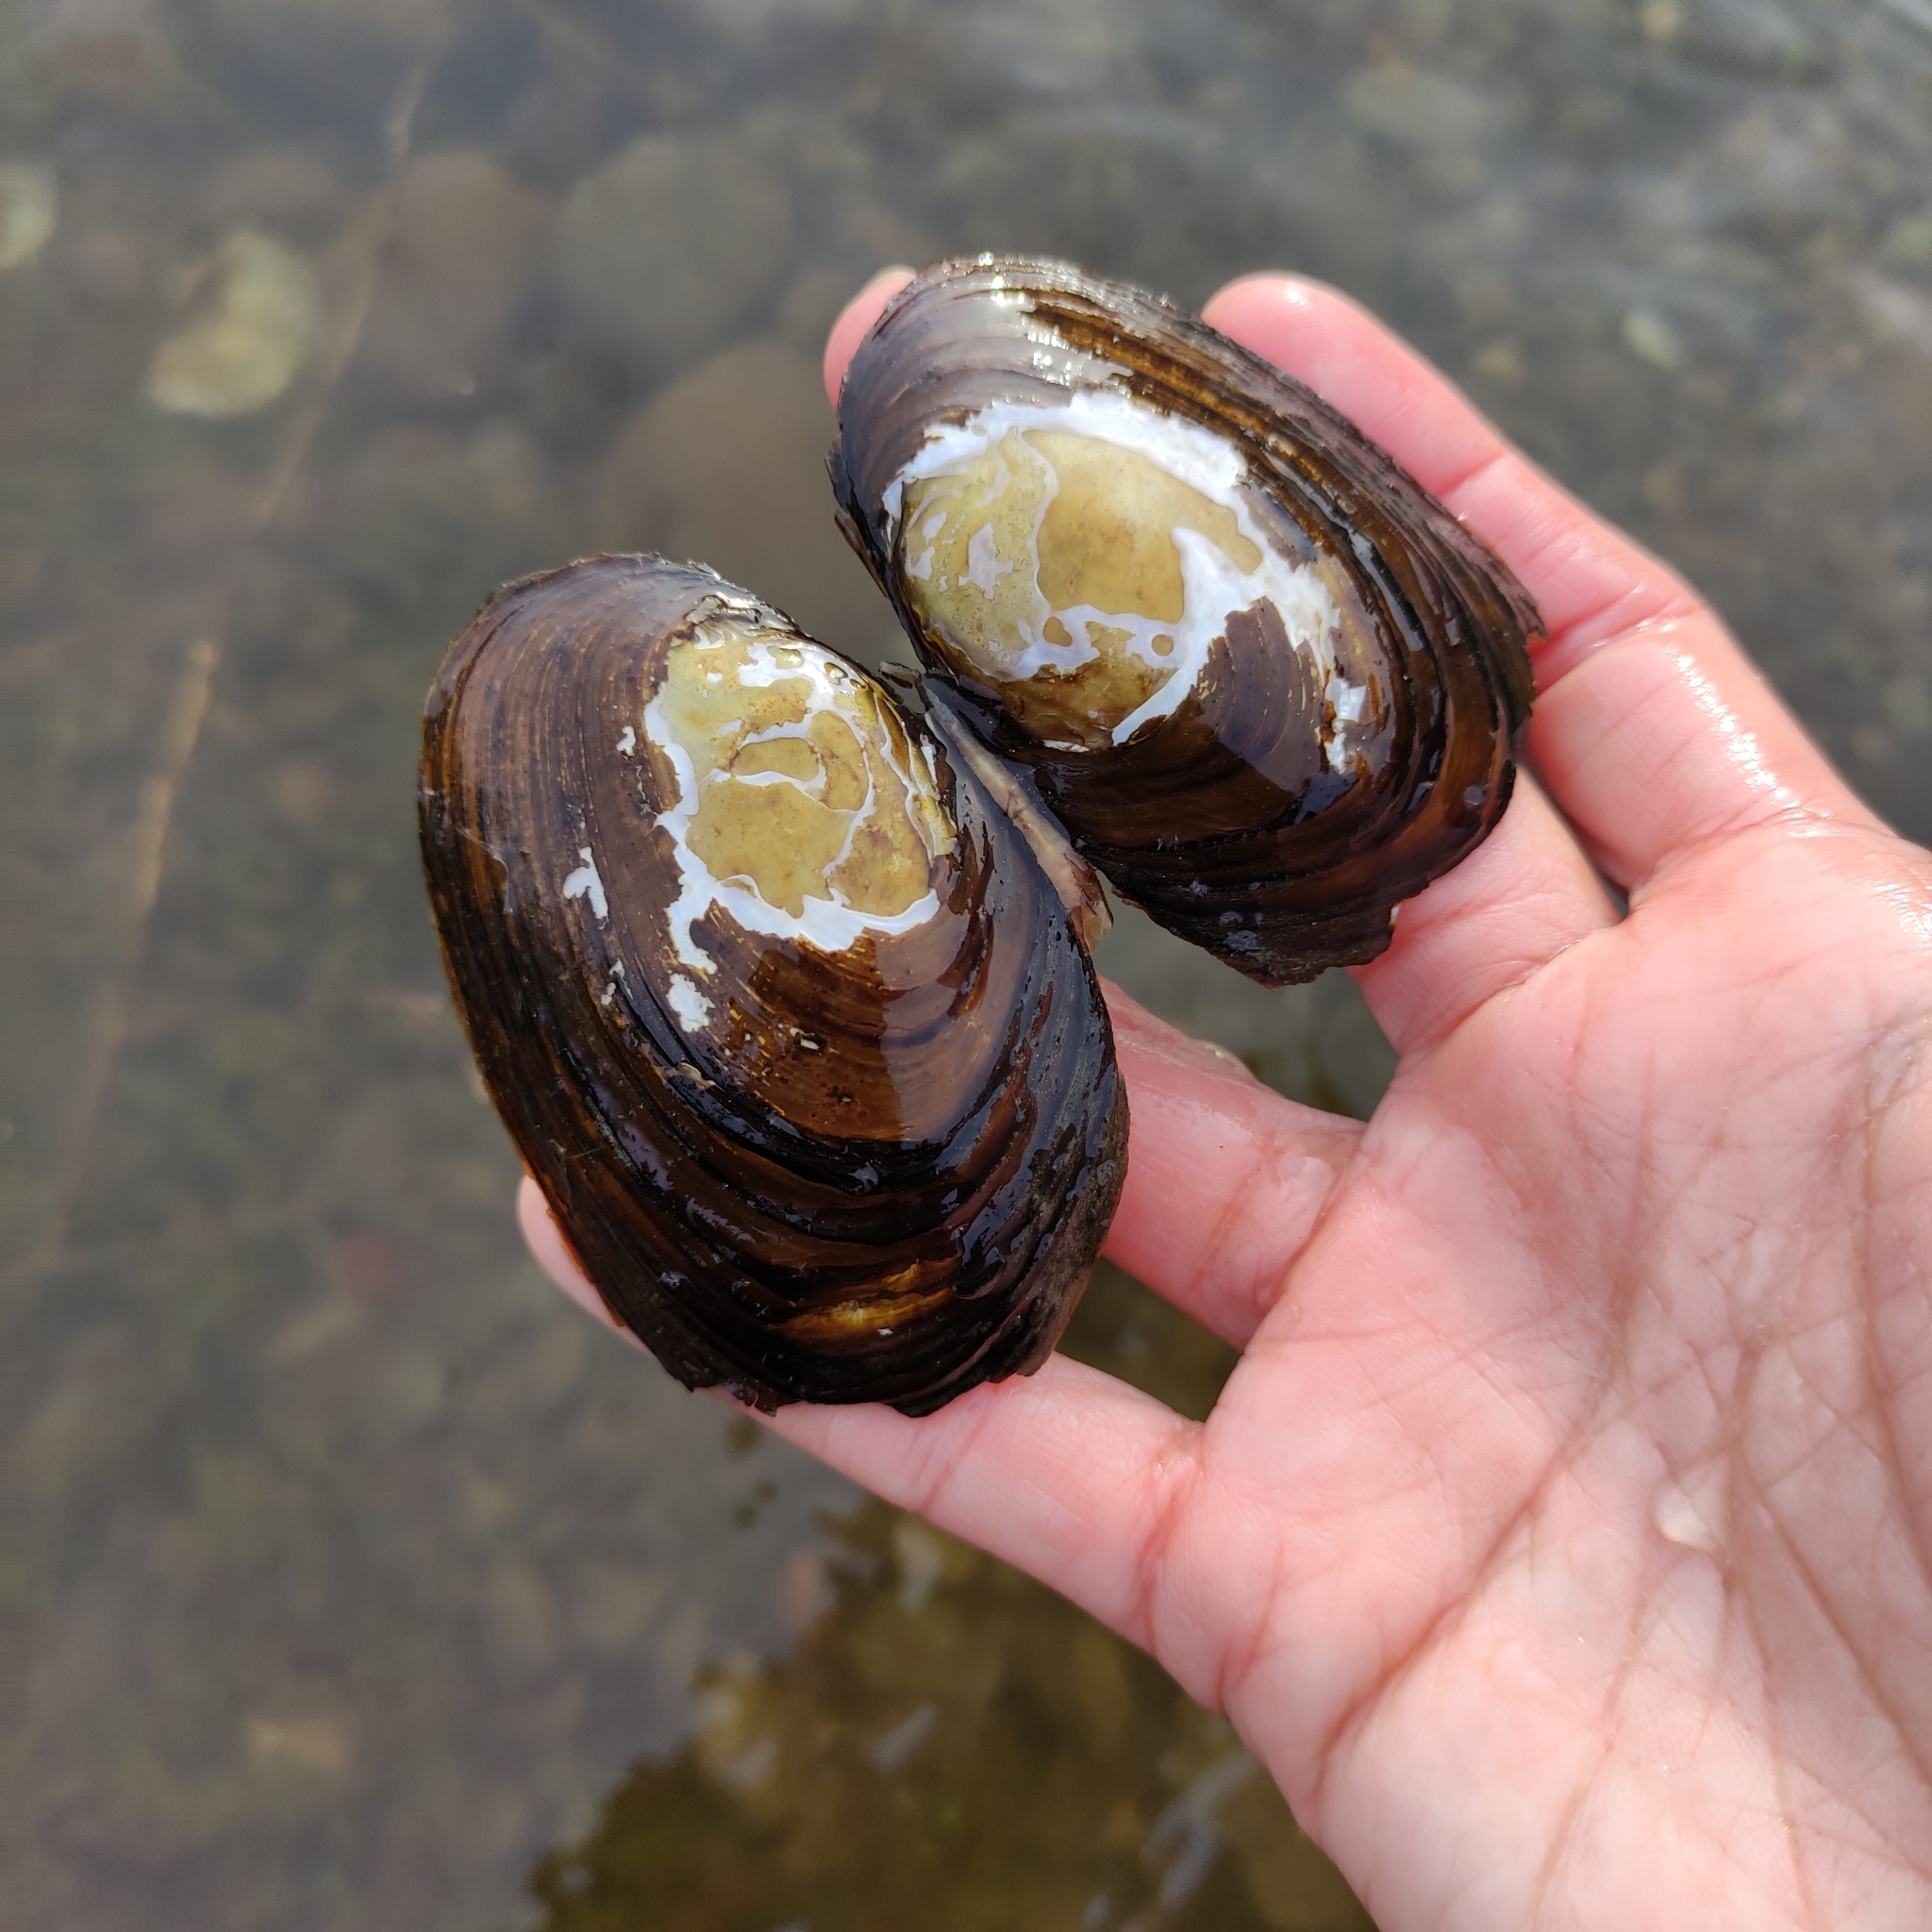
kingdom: Animalia
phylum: Mollusca
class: Bivalvia
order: Unionida
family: Hyriidae
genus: Echyridella
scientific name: Echyridella menziesii
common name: New zealand freshwater mussel
